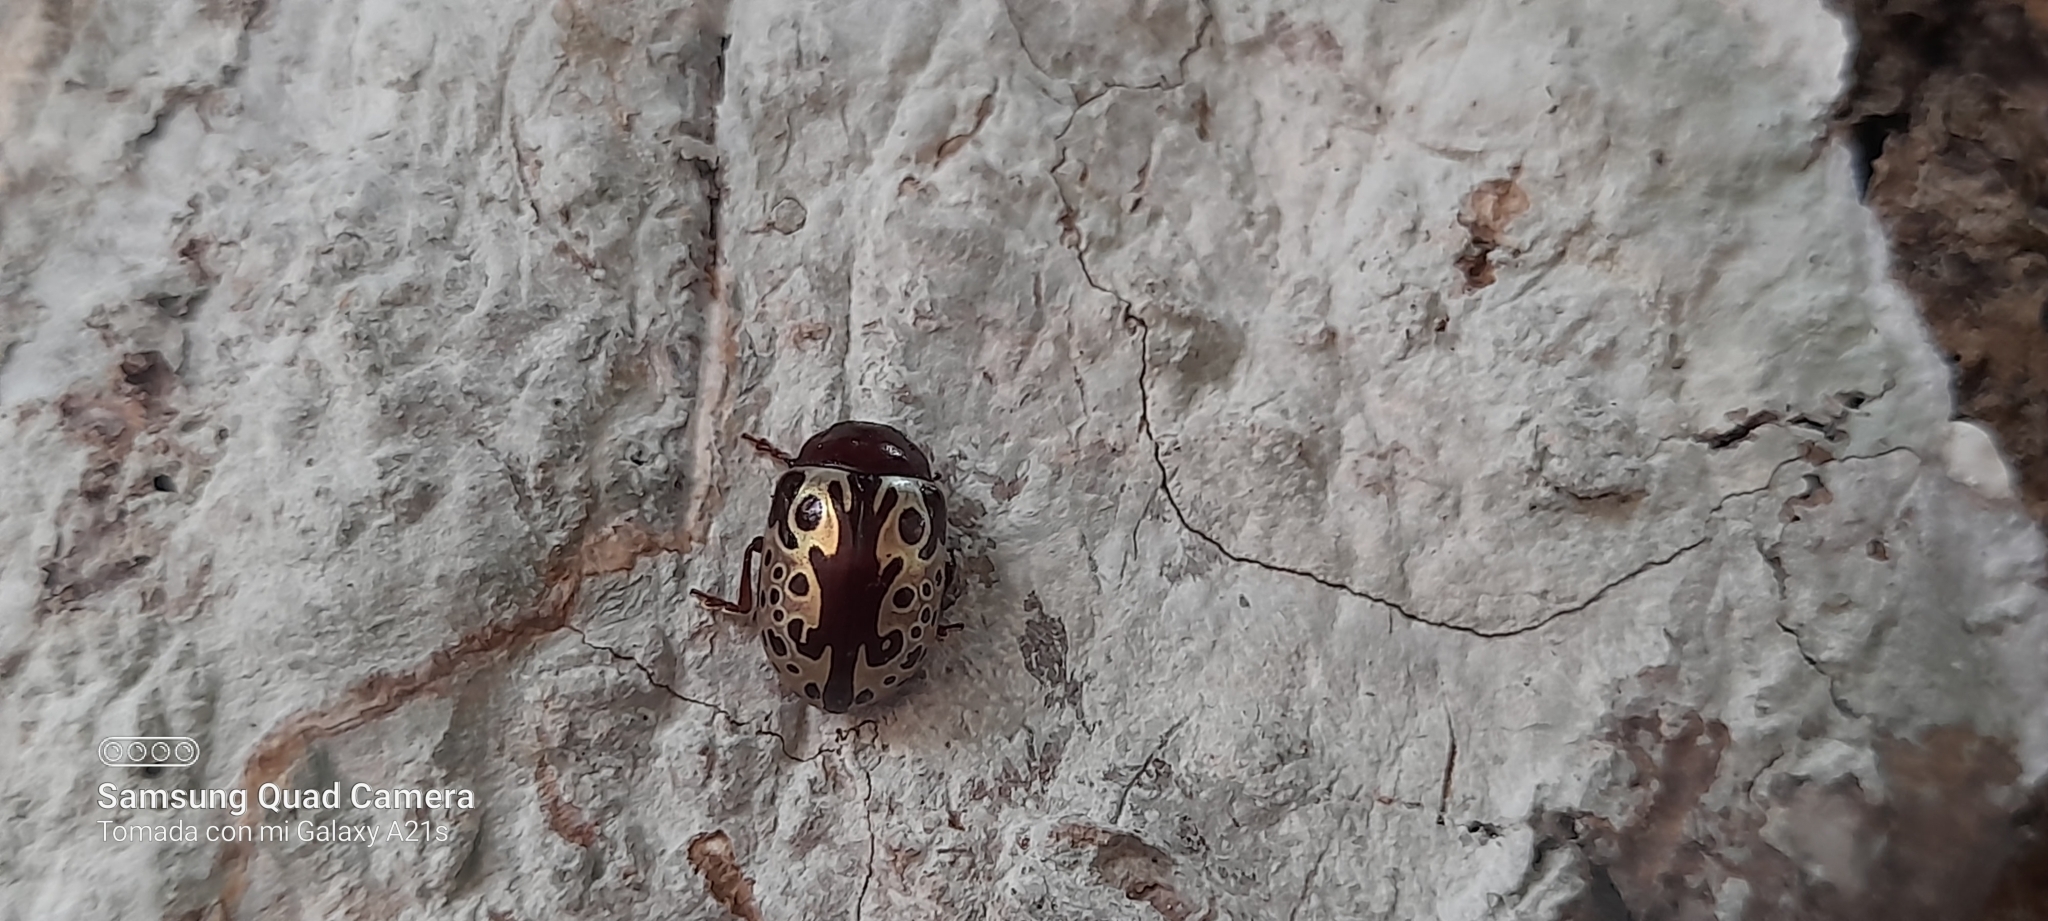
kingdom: Animalia
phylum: Arthropoda
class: Insecta
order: Coleoptera
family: Chrysomelidae
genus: Calligrapha
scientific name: Calligrapha argus
